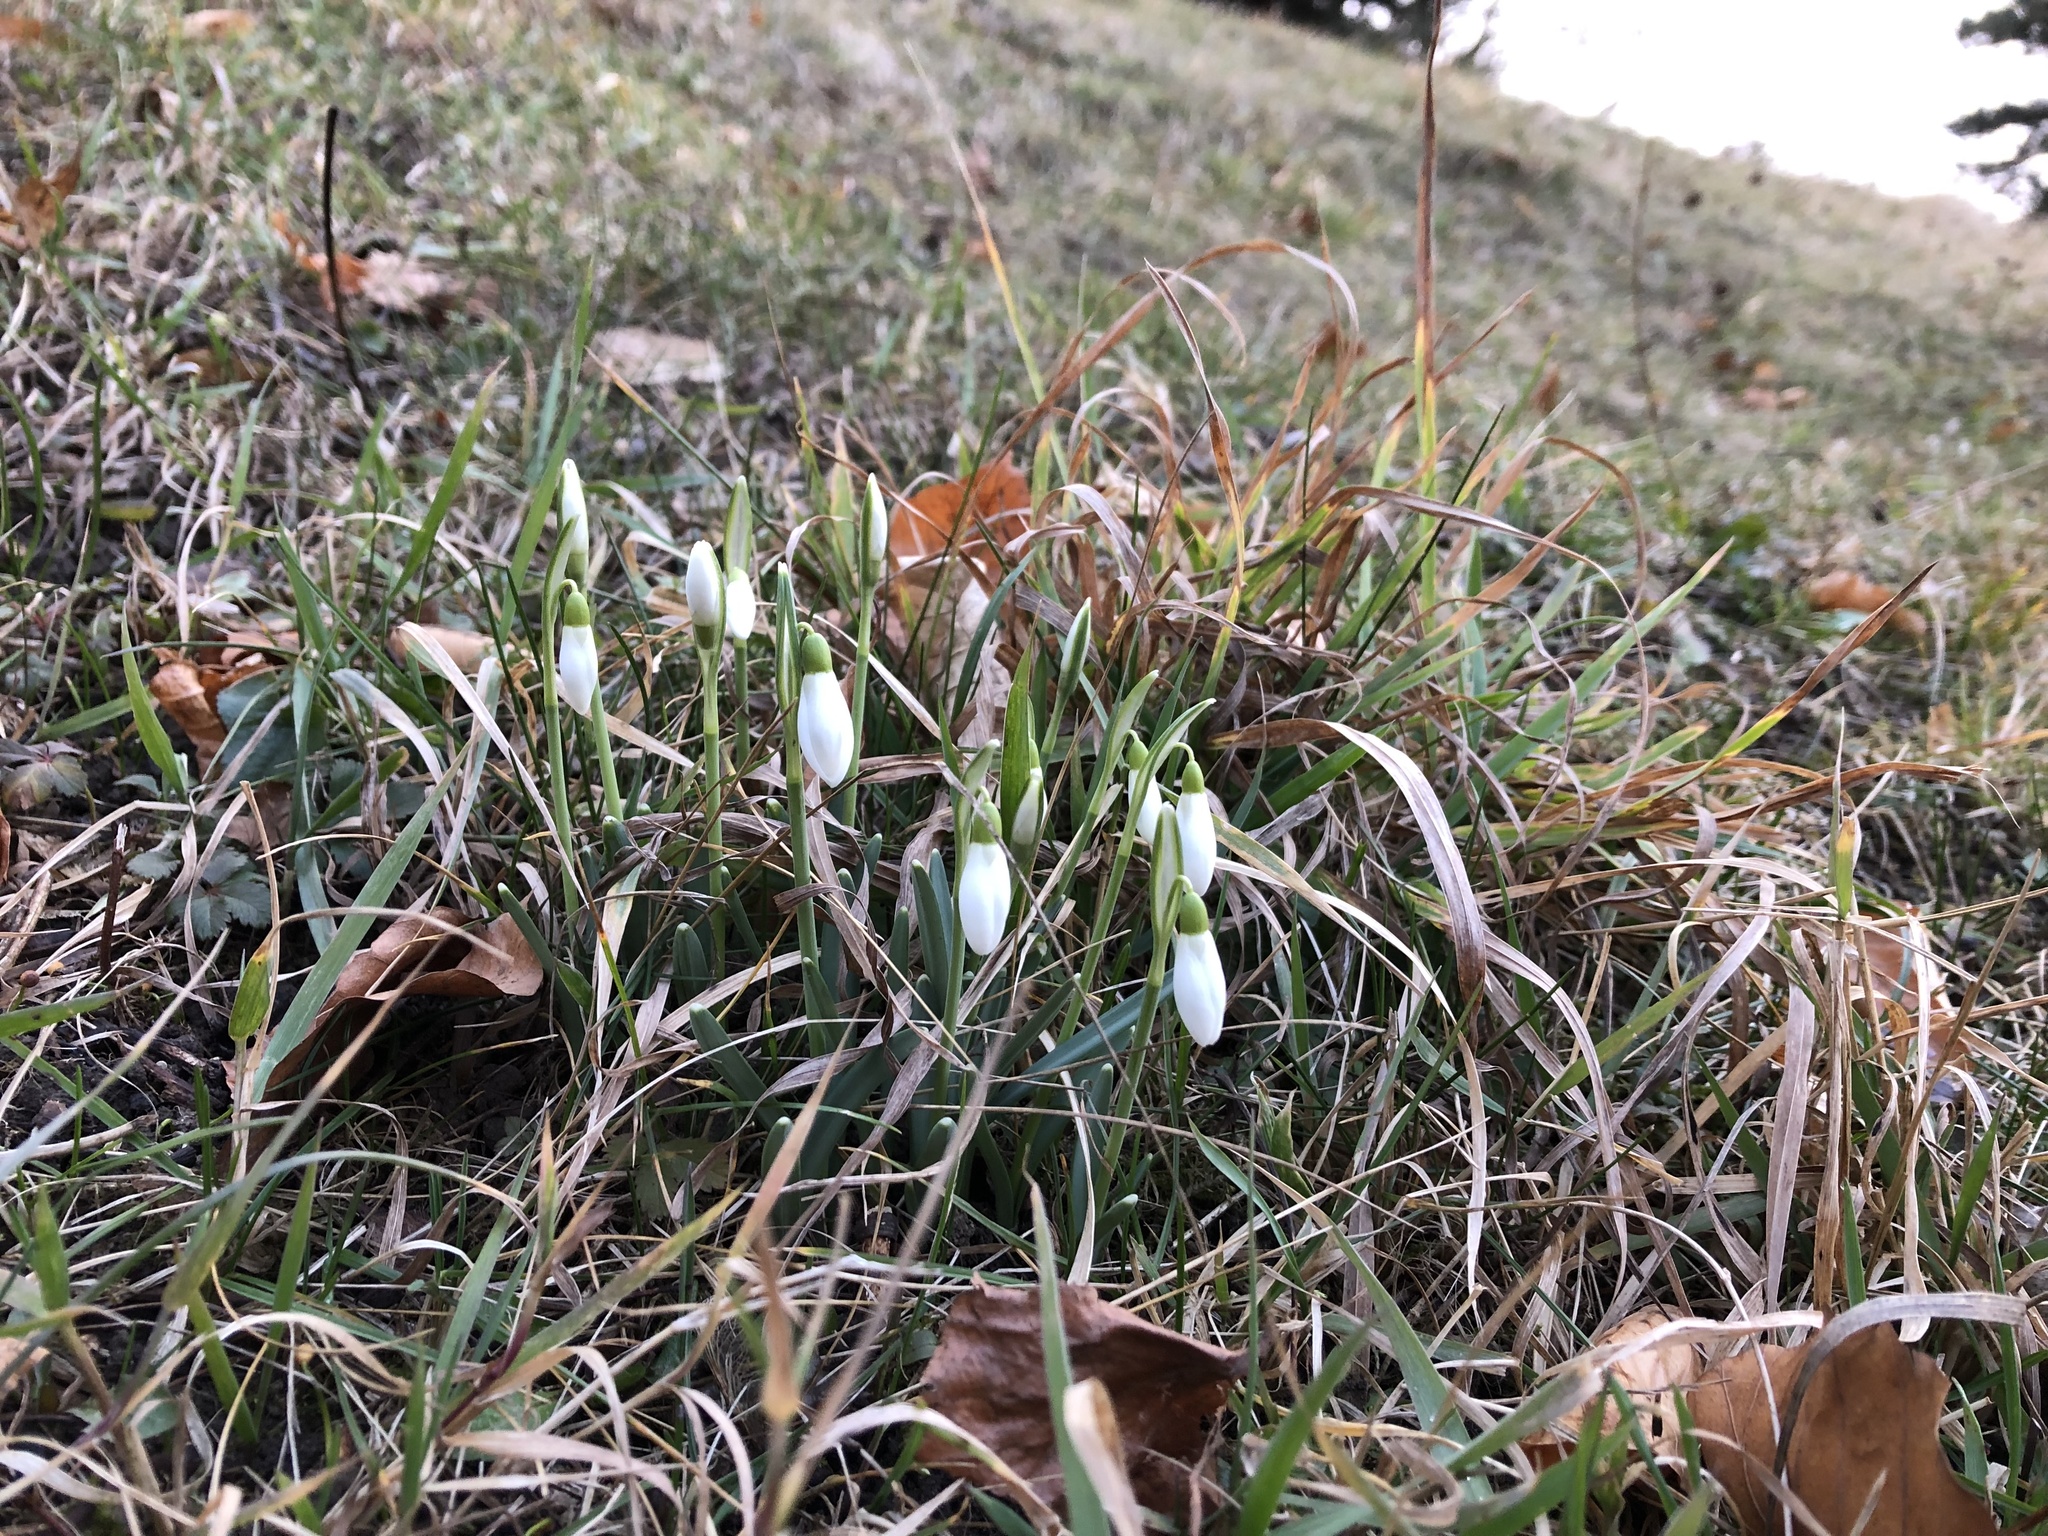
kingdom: Plantae
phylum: Tracheophyta
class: Liliopsida
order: Asparagales
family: Amaryllidaceae
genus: Galanthus
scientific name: Galanthus nivalis
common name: Snowdrop
